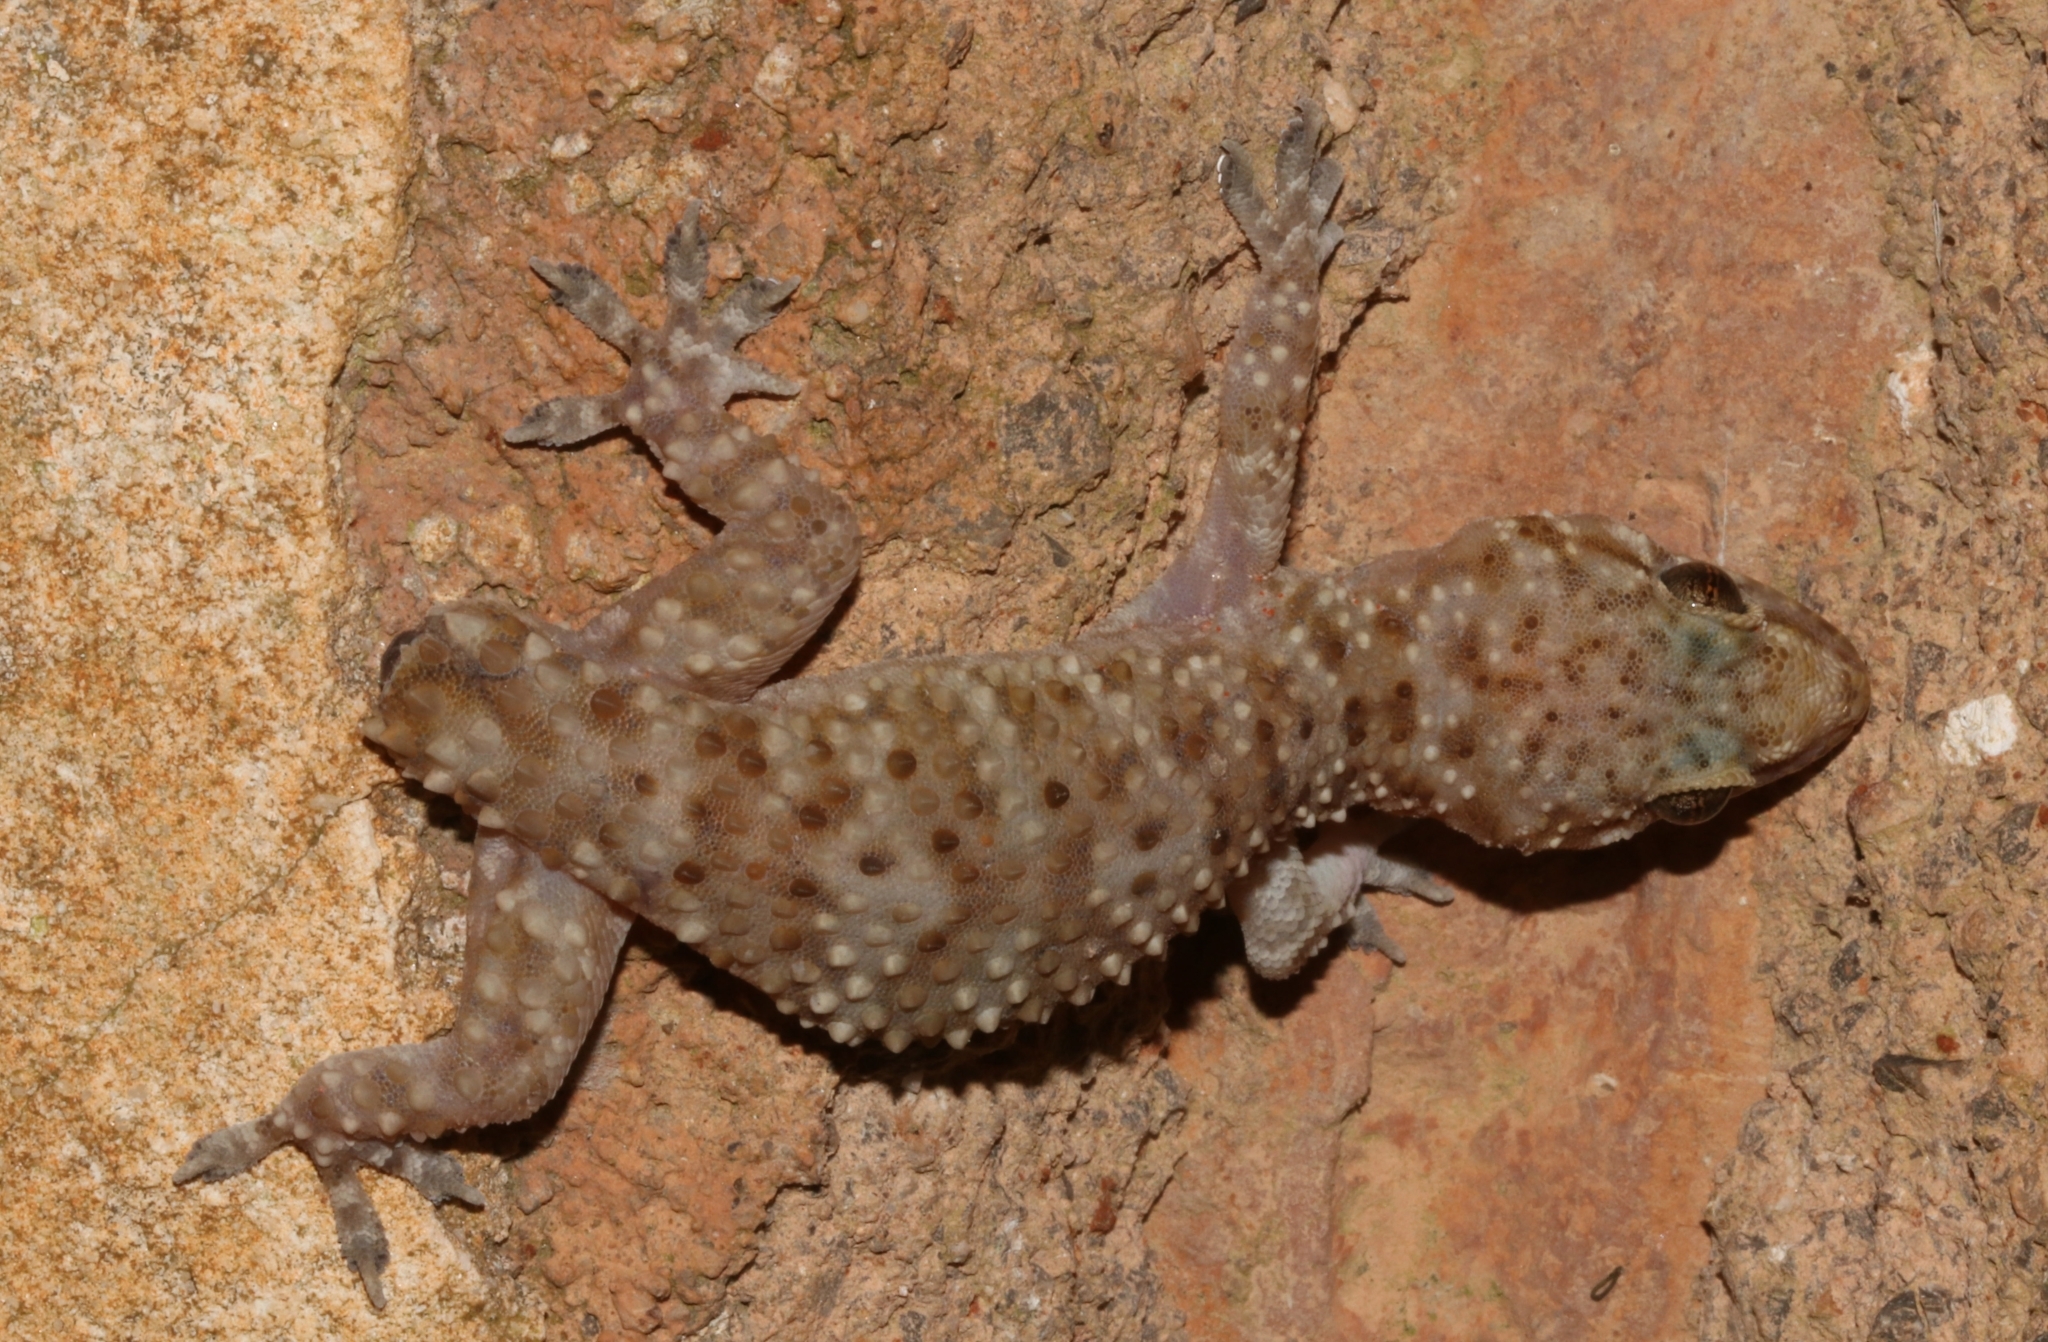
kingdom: Animalia
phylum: Chordata
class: Squamata
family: Gekkonidae
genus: Hemidactylus
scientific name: Hemidactylus turcicus
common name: Turkish gecko
